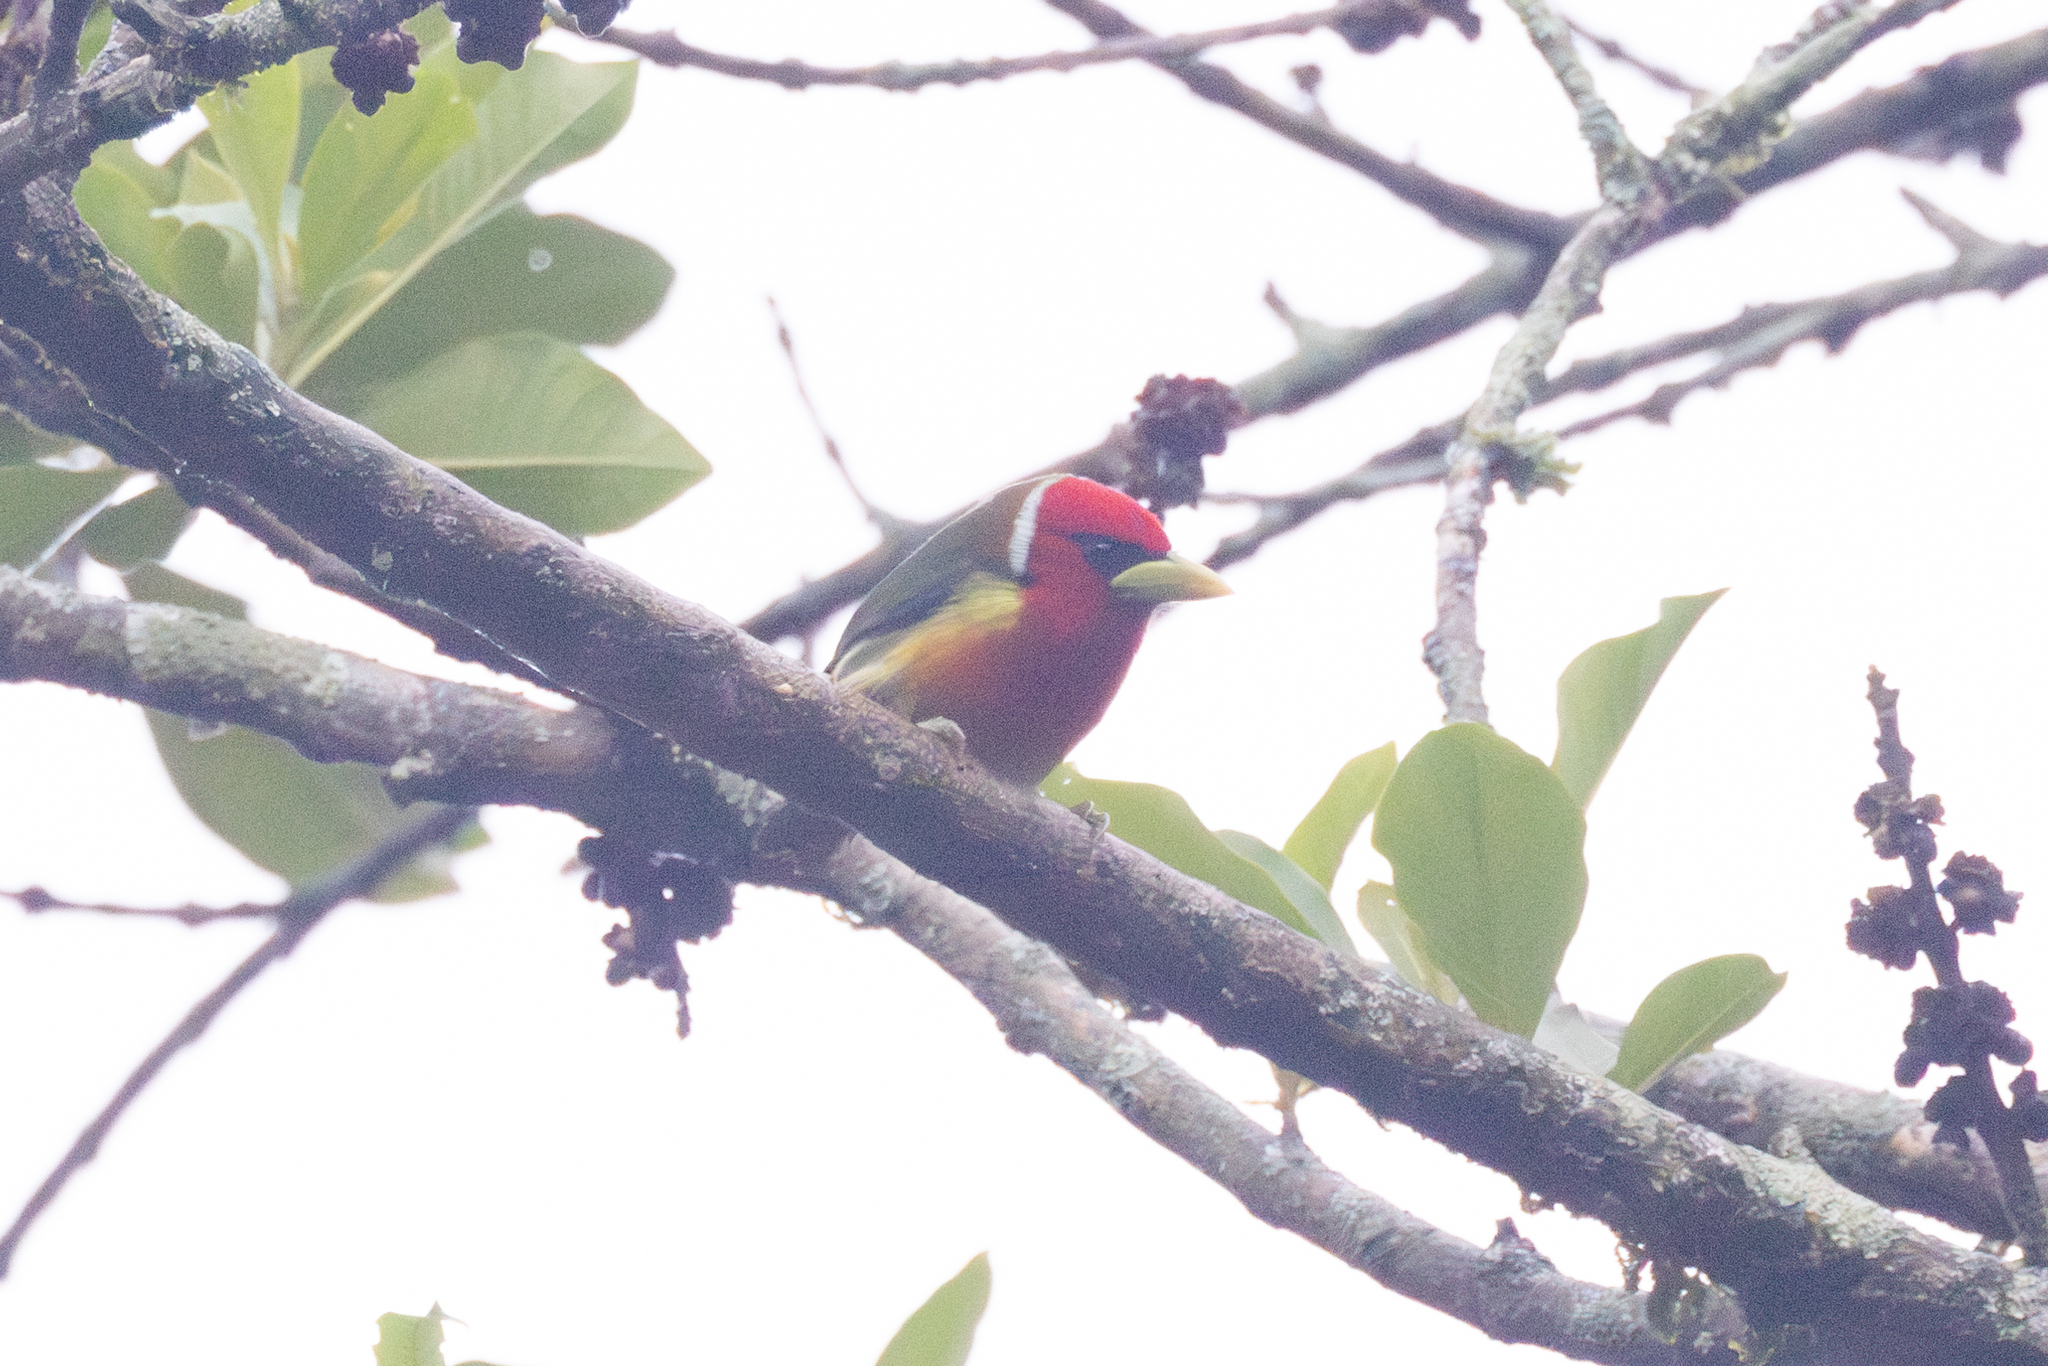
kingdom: Animalia
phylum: Chordata
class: Aves
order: Piciformes
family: Capitonidae
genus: Eubucco
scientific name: Eubucco bourcierii
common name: Red-headed barbet
